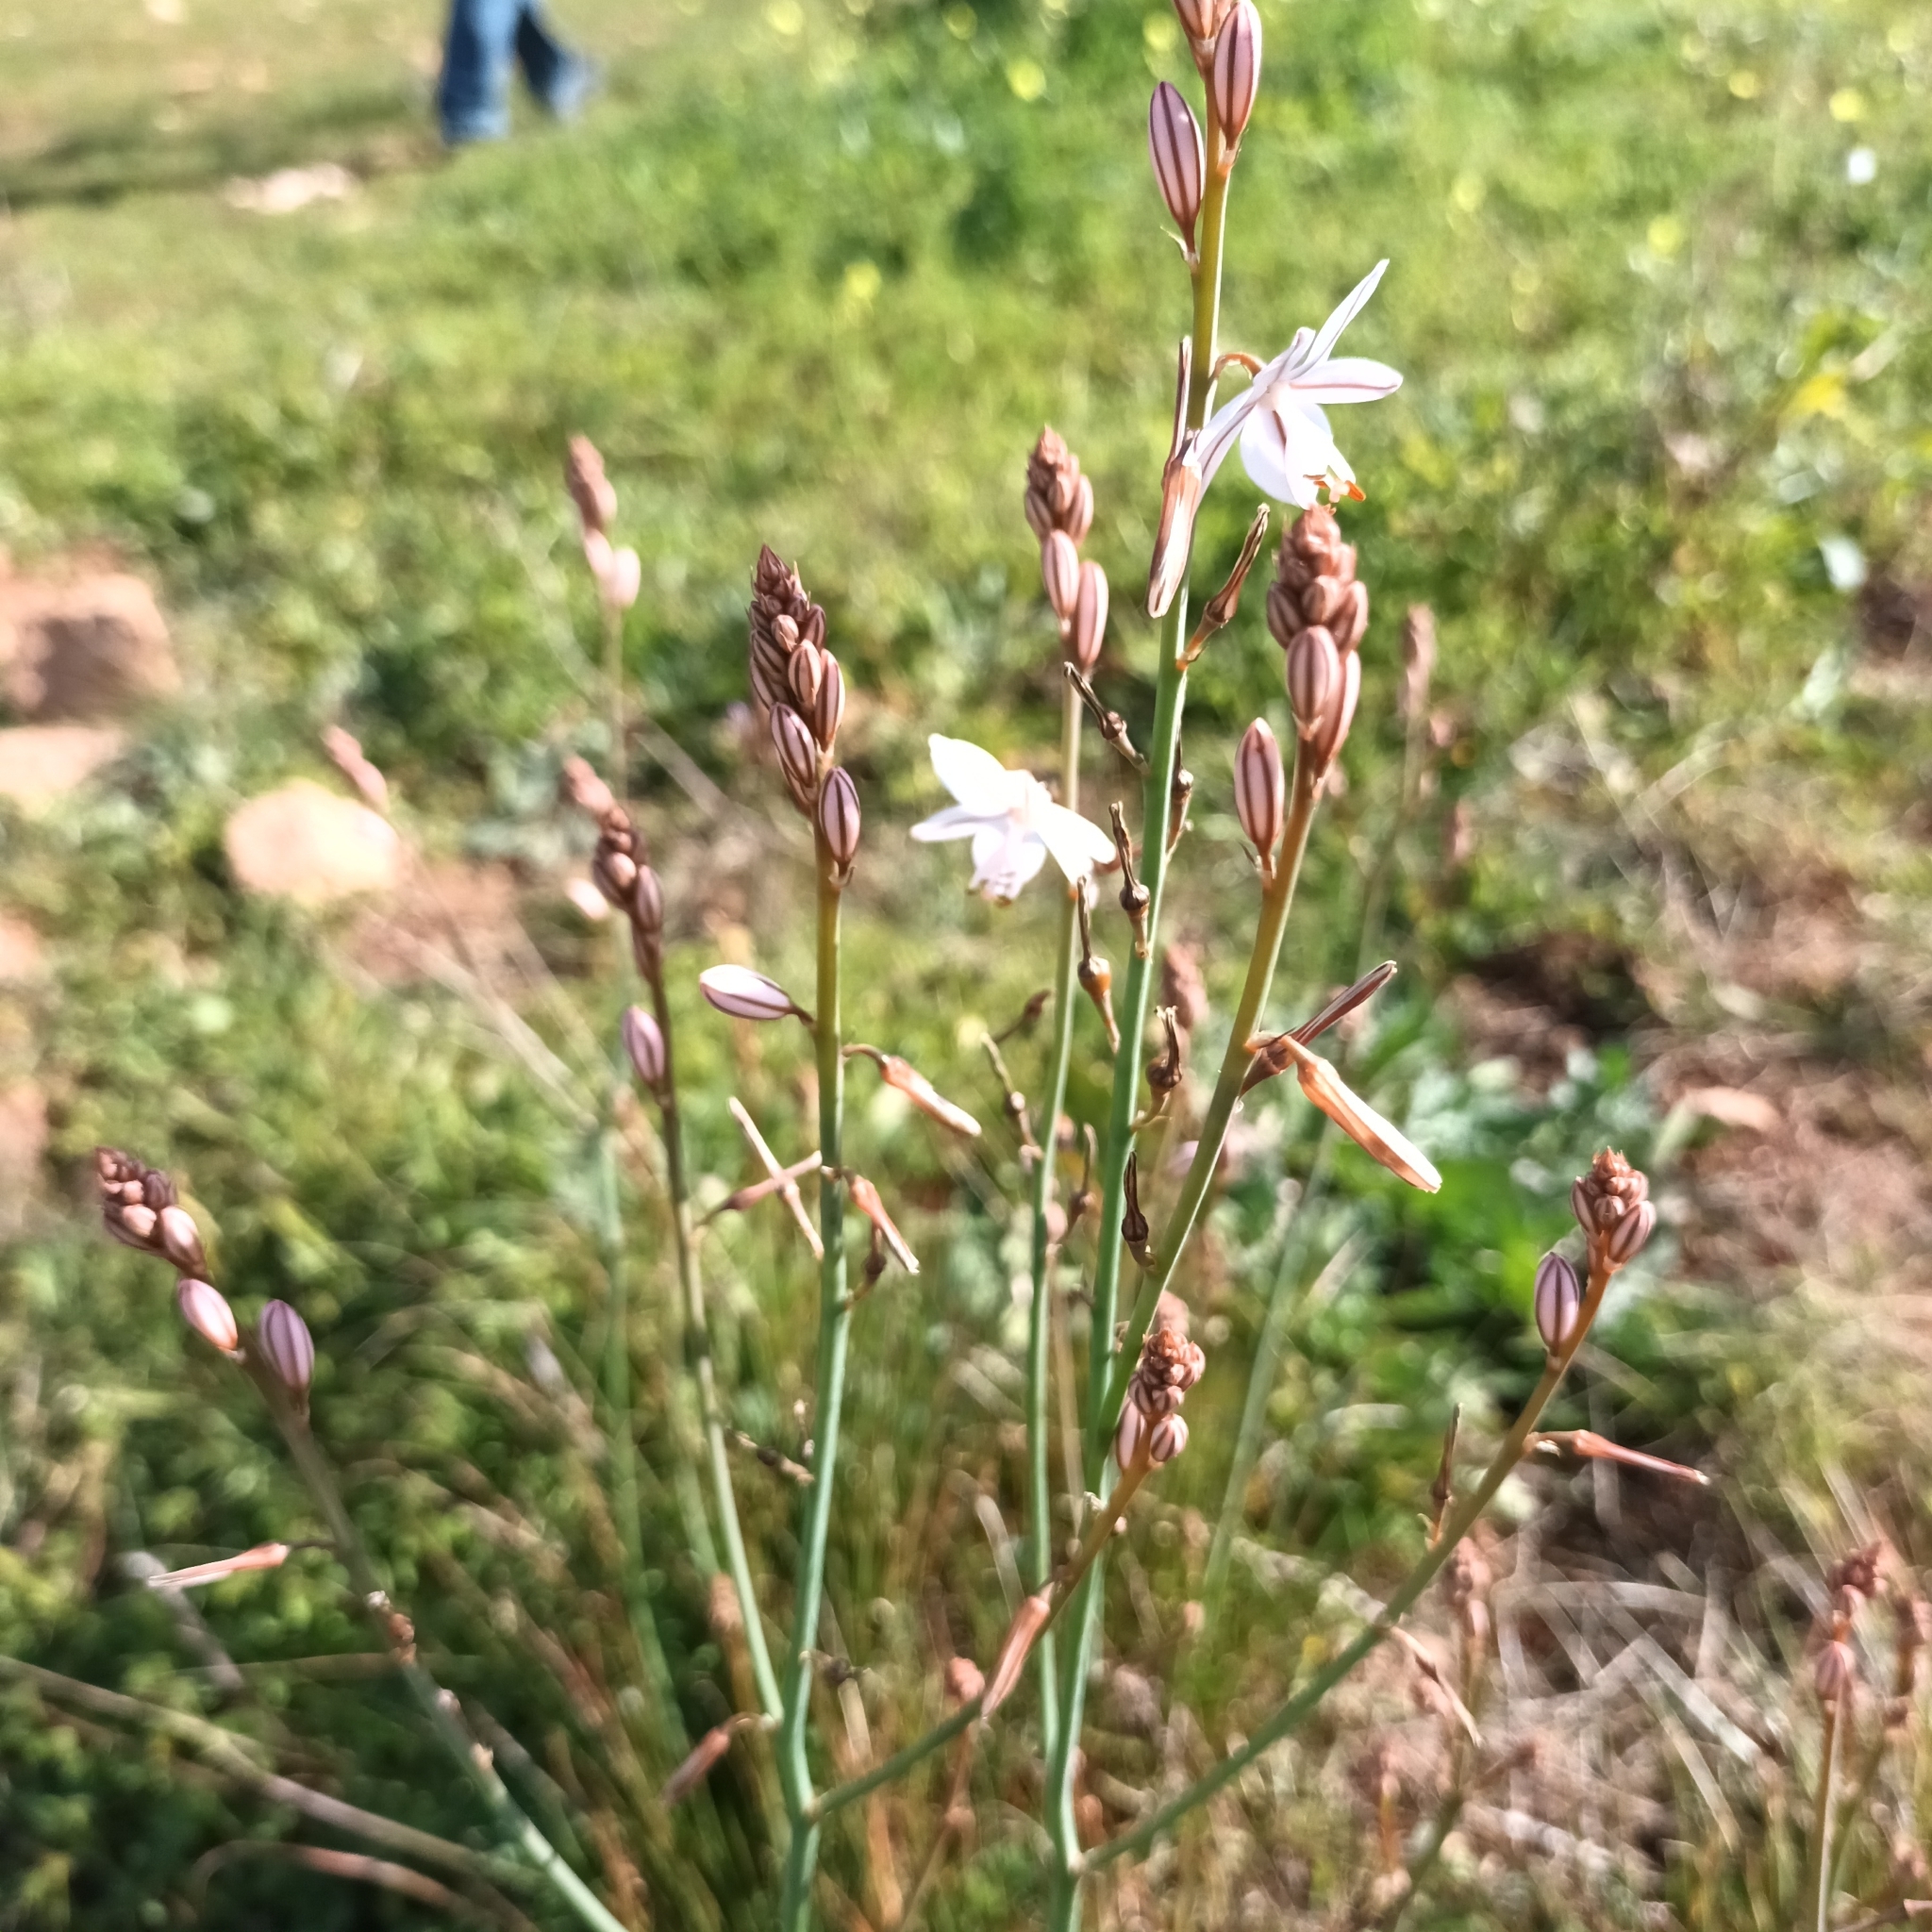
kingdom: Plantae
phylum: Tracheophyta
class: Liliopsida
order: Asparagales
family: Asphodelaceae
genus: Asphodelus
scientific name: Asphodelus fistulosus
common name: Onionweed
